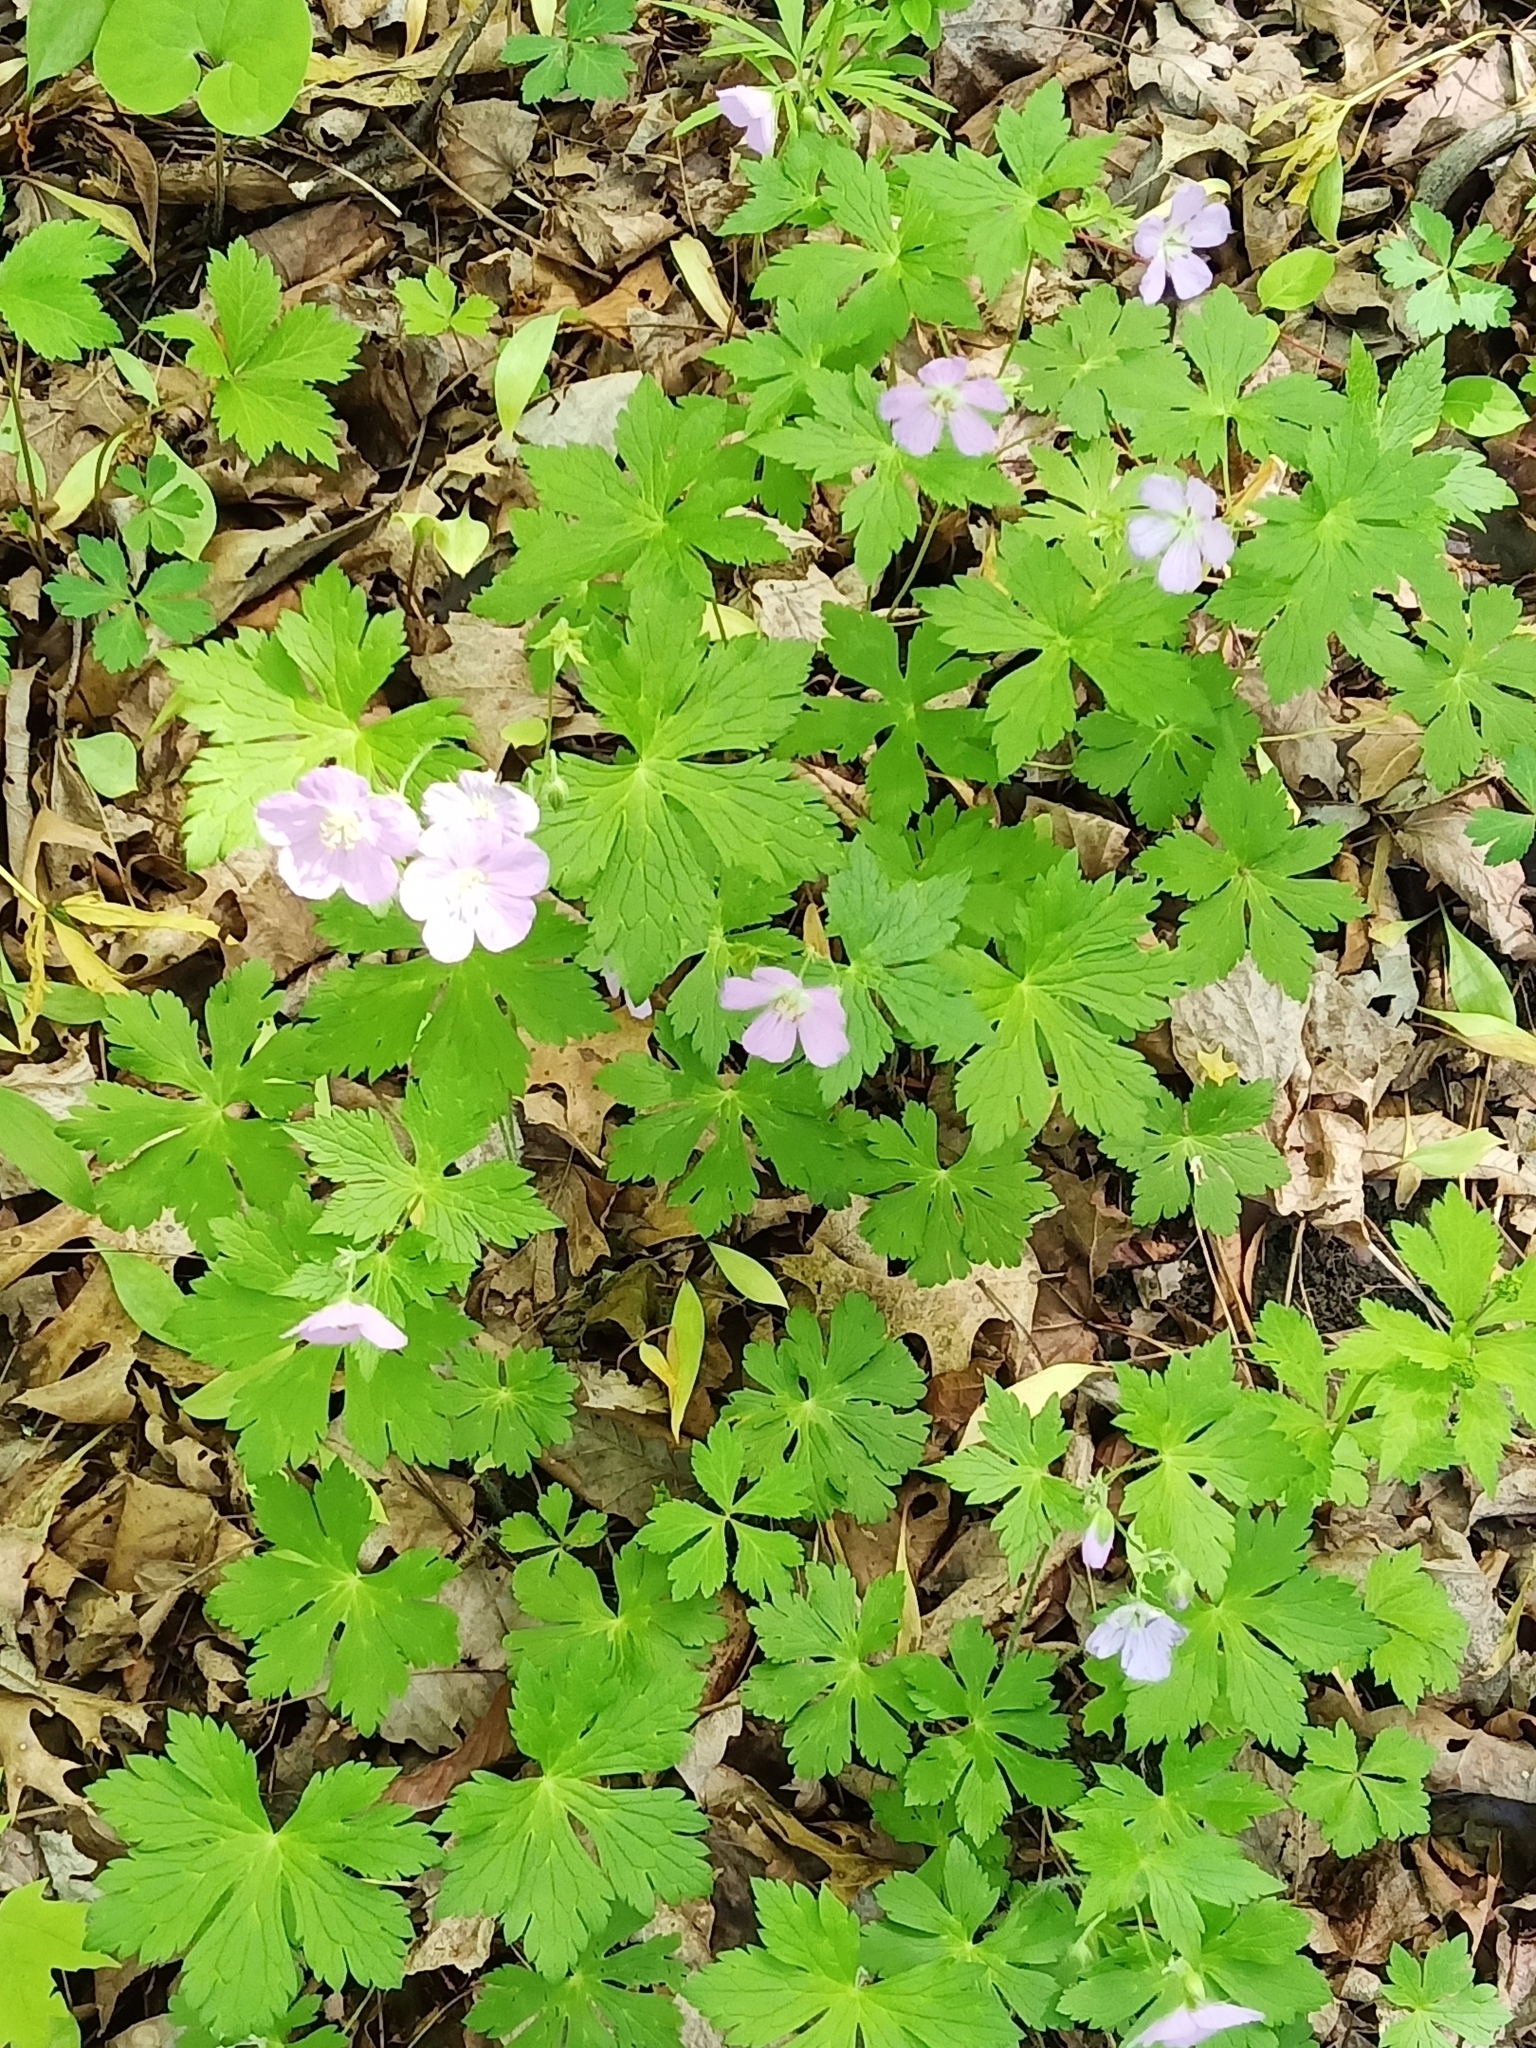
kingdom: Plantae
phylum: Tracheophyta
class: Magnoliopsida
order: Geraniales
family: Geraniaceae
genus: Geranium
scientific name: Geranium maculatum
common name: Spotted geranium
